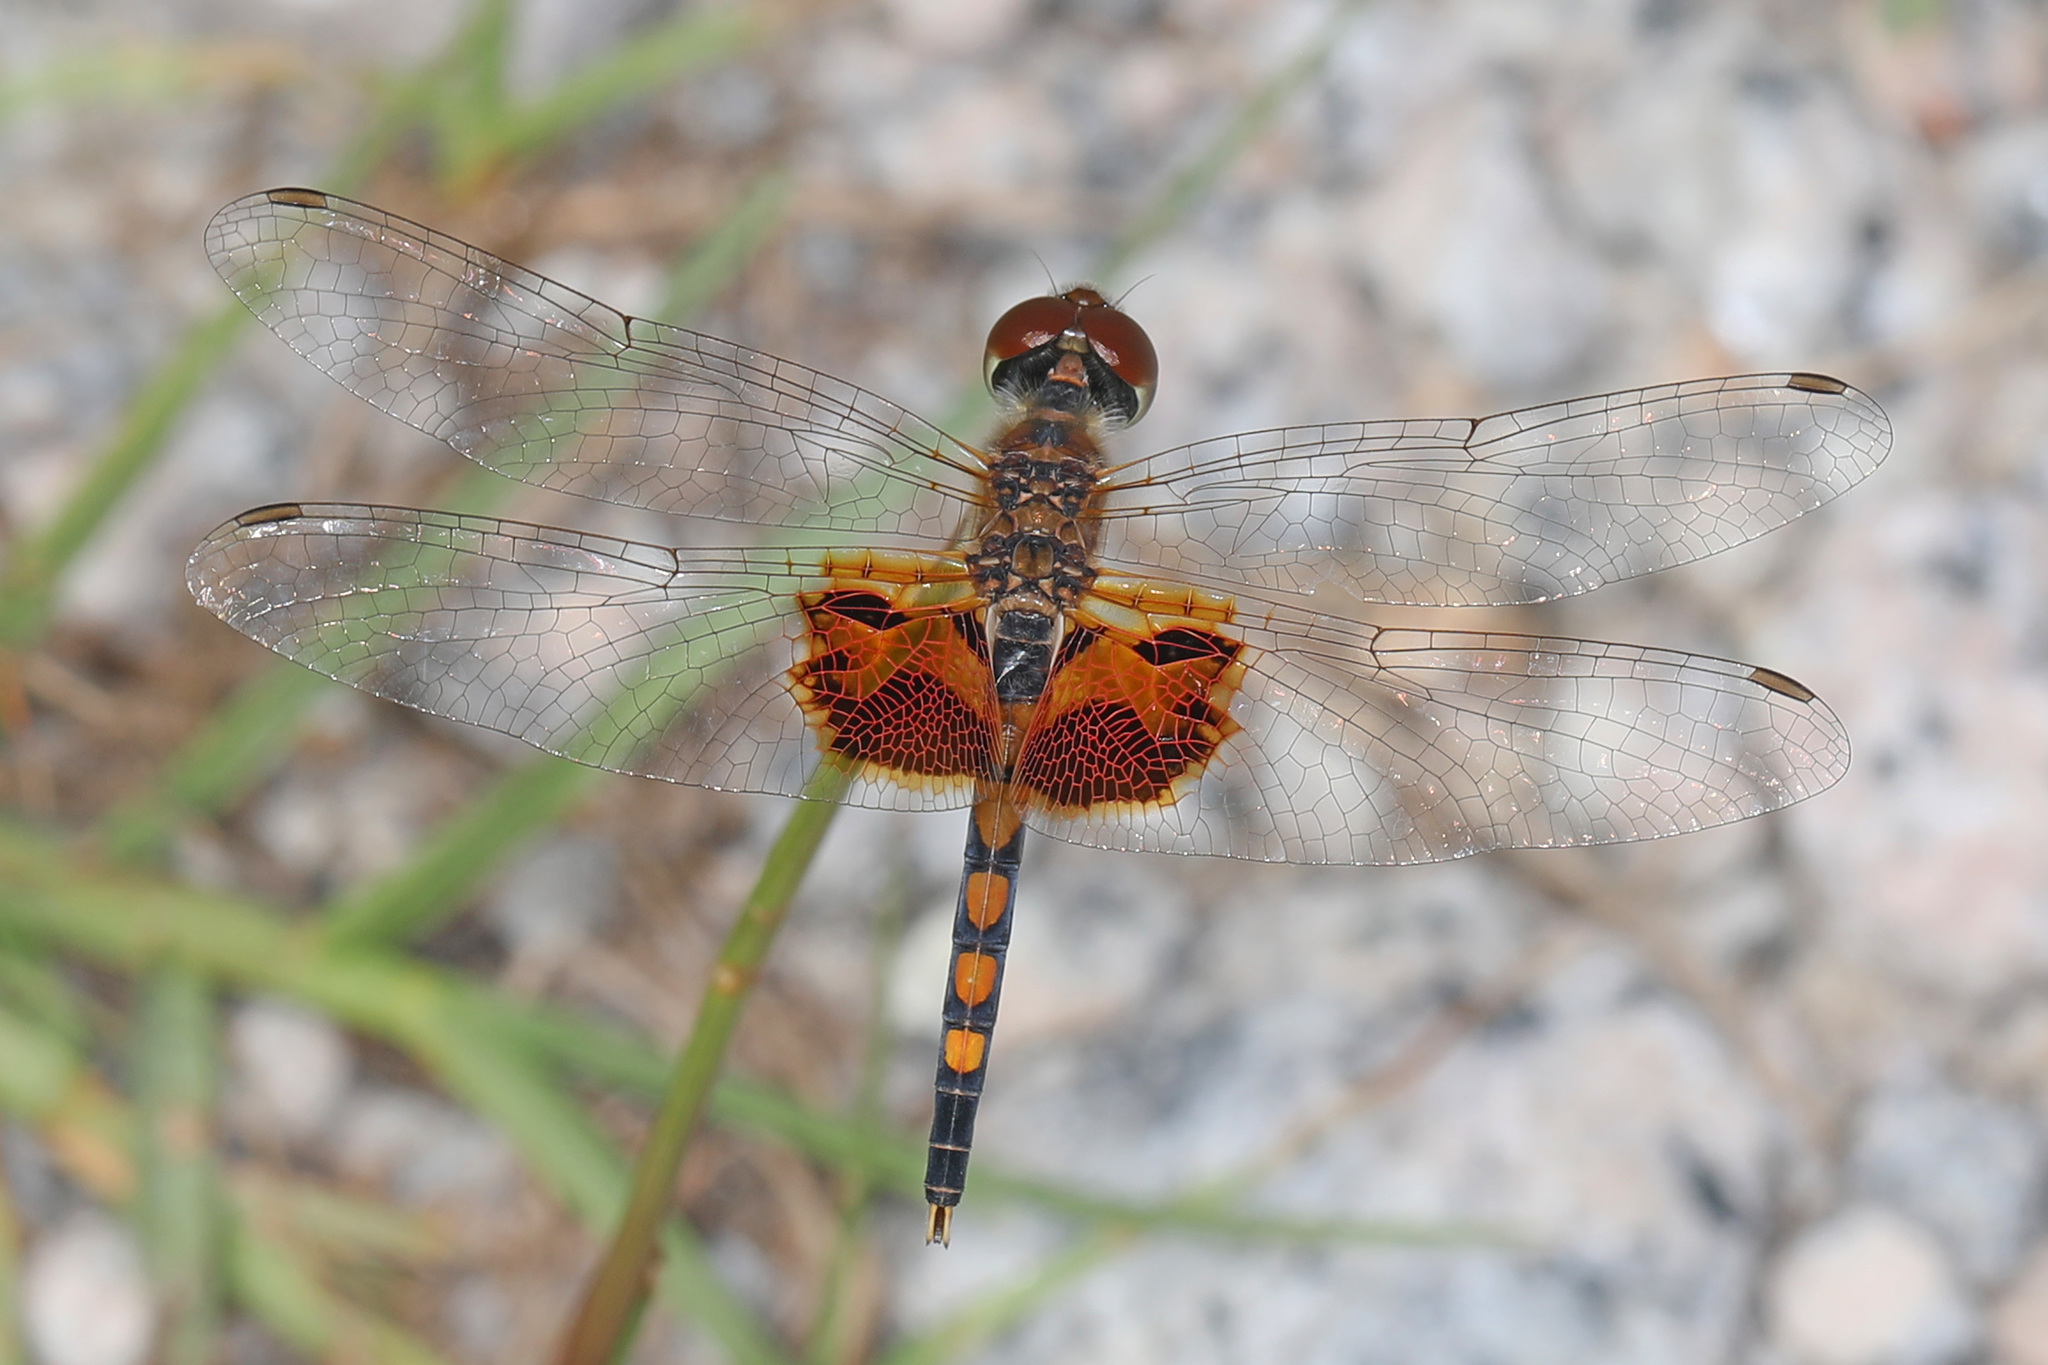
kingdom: Animalia
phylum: Arthropoda
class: Insecta
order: Odonata
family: Libellulidae
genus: Celithemis
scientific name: Celithemis amanda
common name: Amanda's pennant
